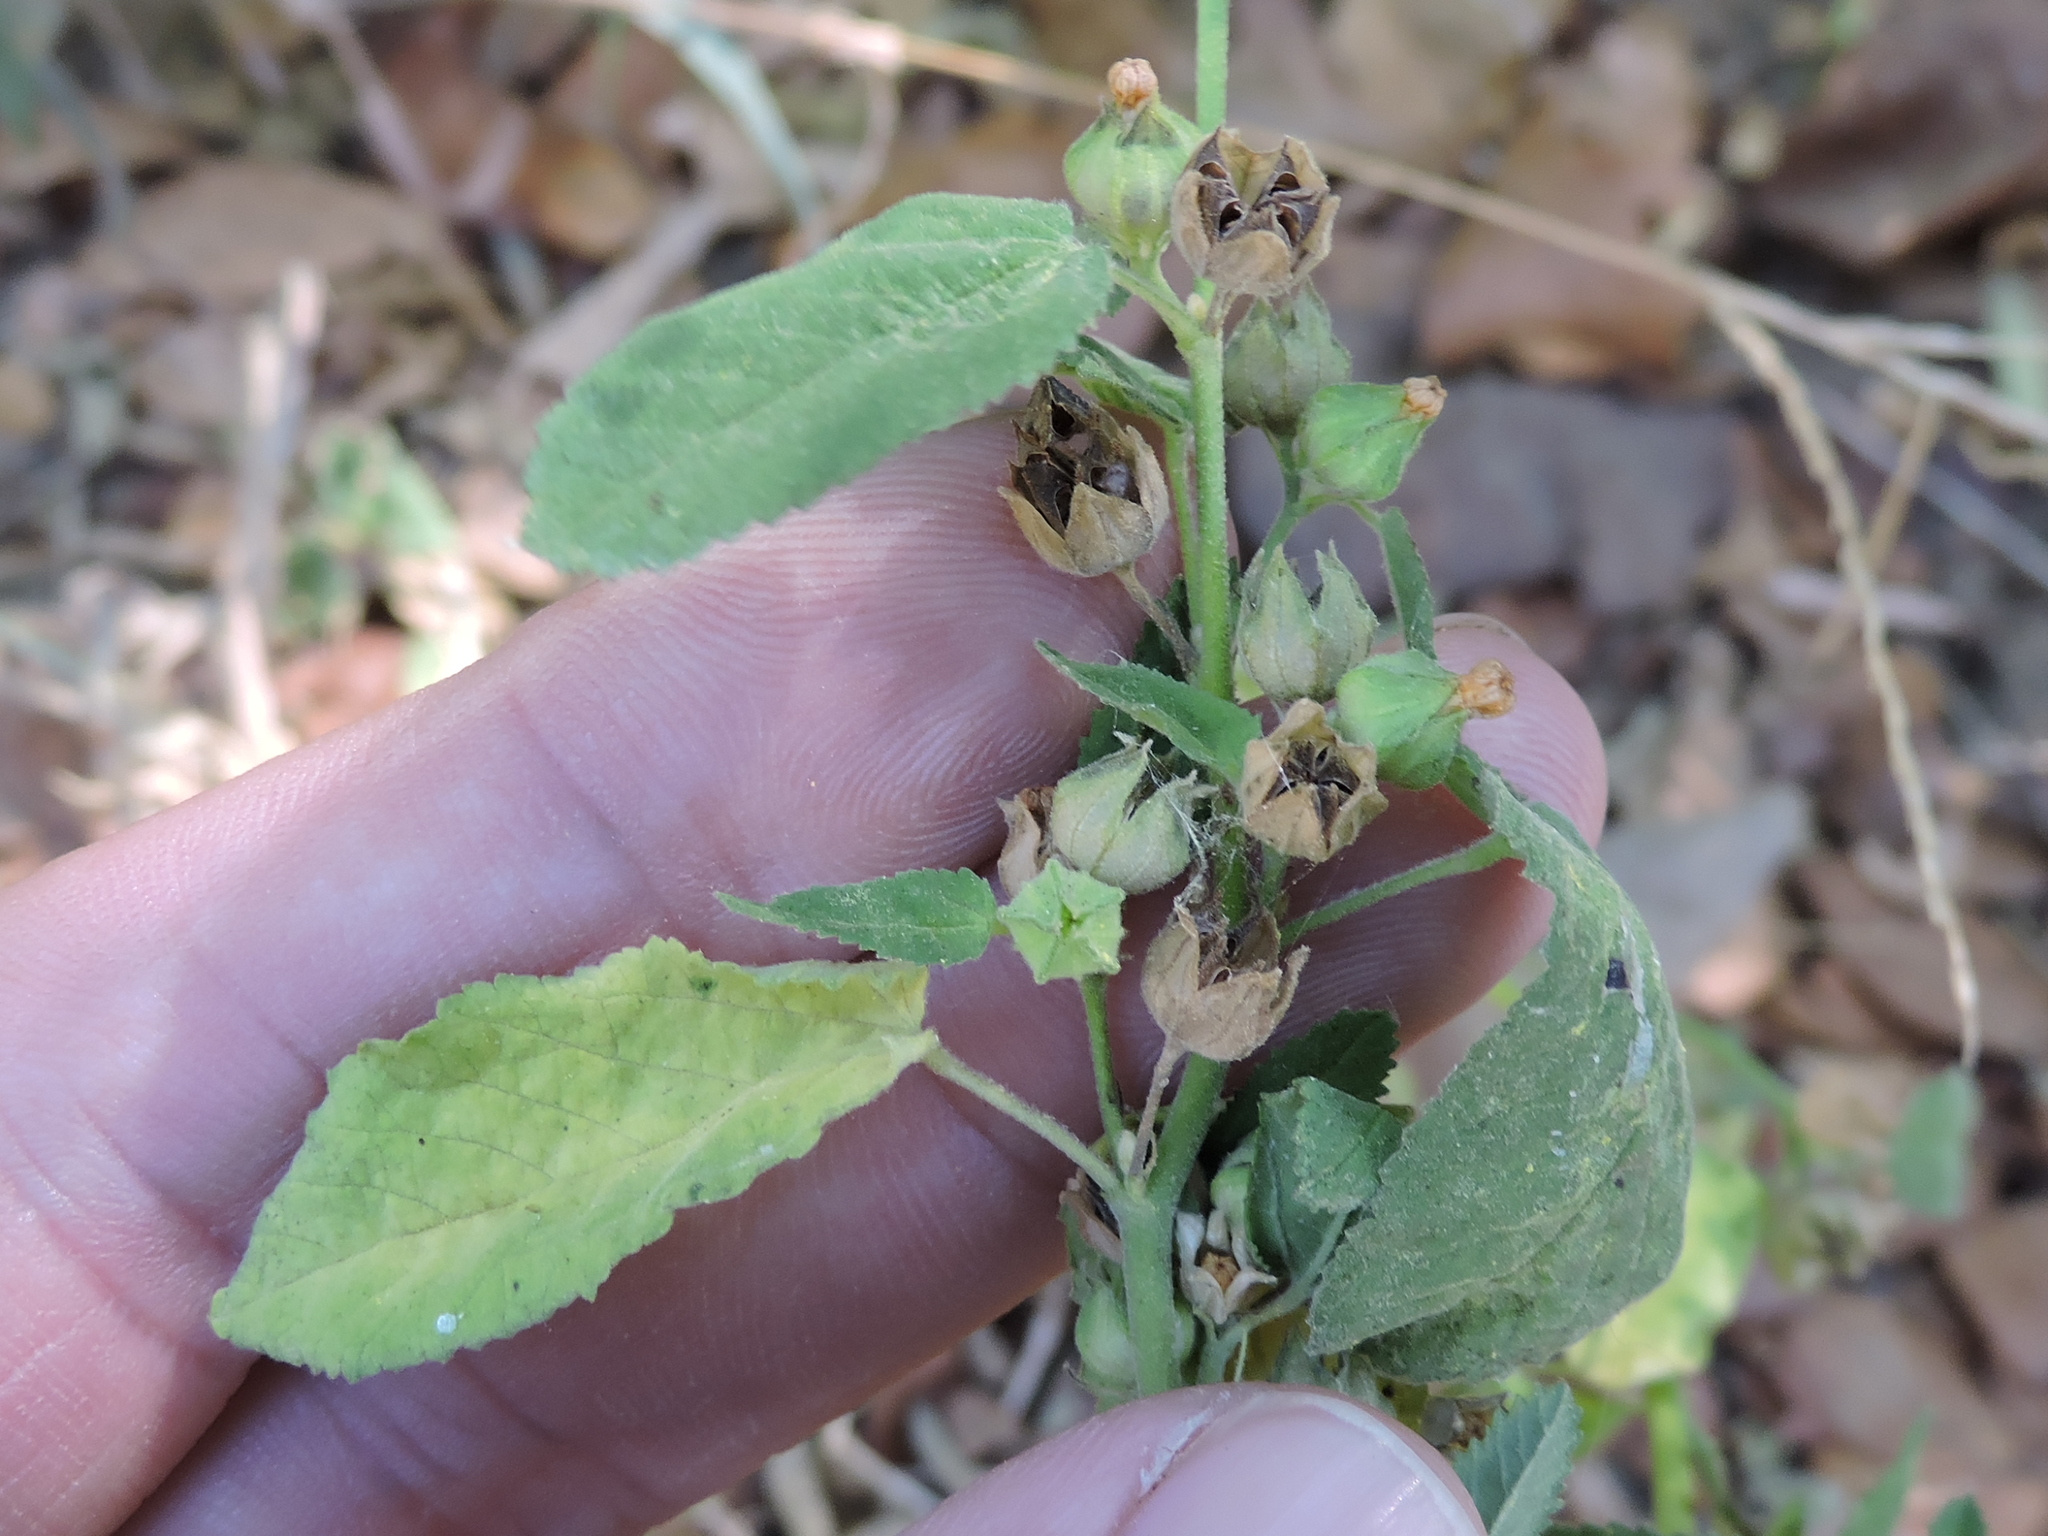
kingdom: Plantae
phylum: Tracheophyta
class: Magnoliopsida
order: Malvales
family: Malvaceae
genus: Sida
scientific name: Sida spinosa
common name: Prickly fanpetals
